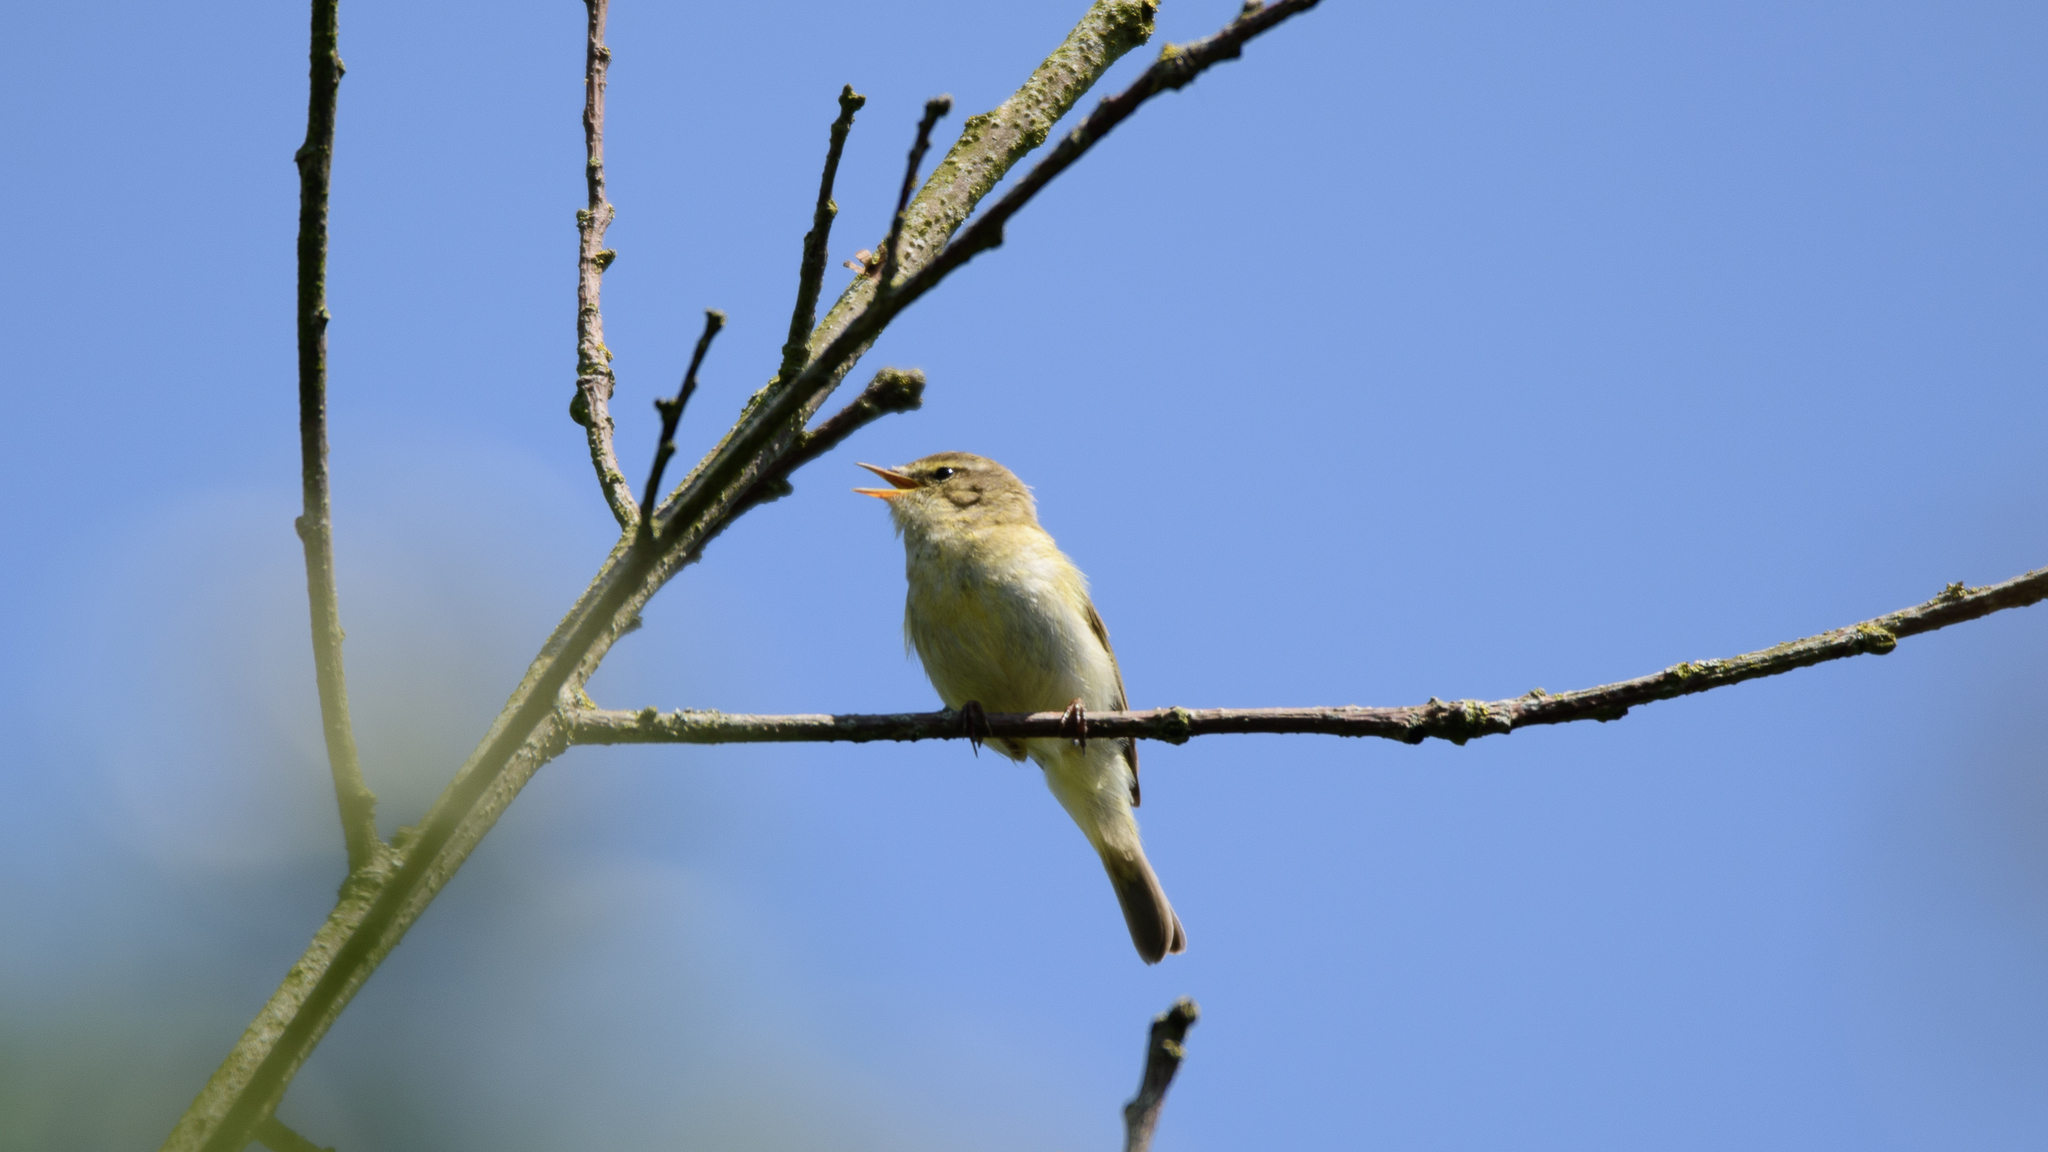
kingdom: Animalia
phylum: Chordata
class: Aves
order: Passeriformes
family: Phylloscopidae
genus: Phylloscopus
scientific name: Phylloscopus collybita
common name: Common chiffchaff
